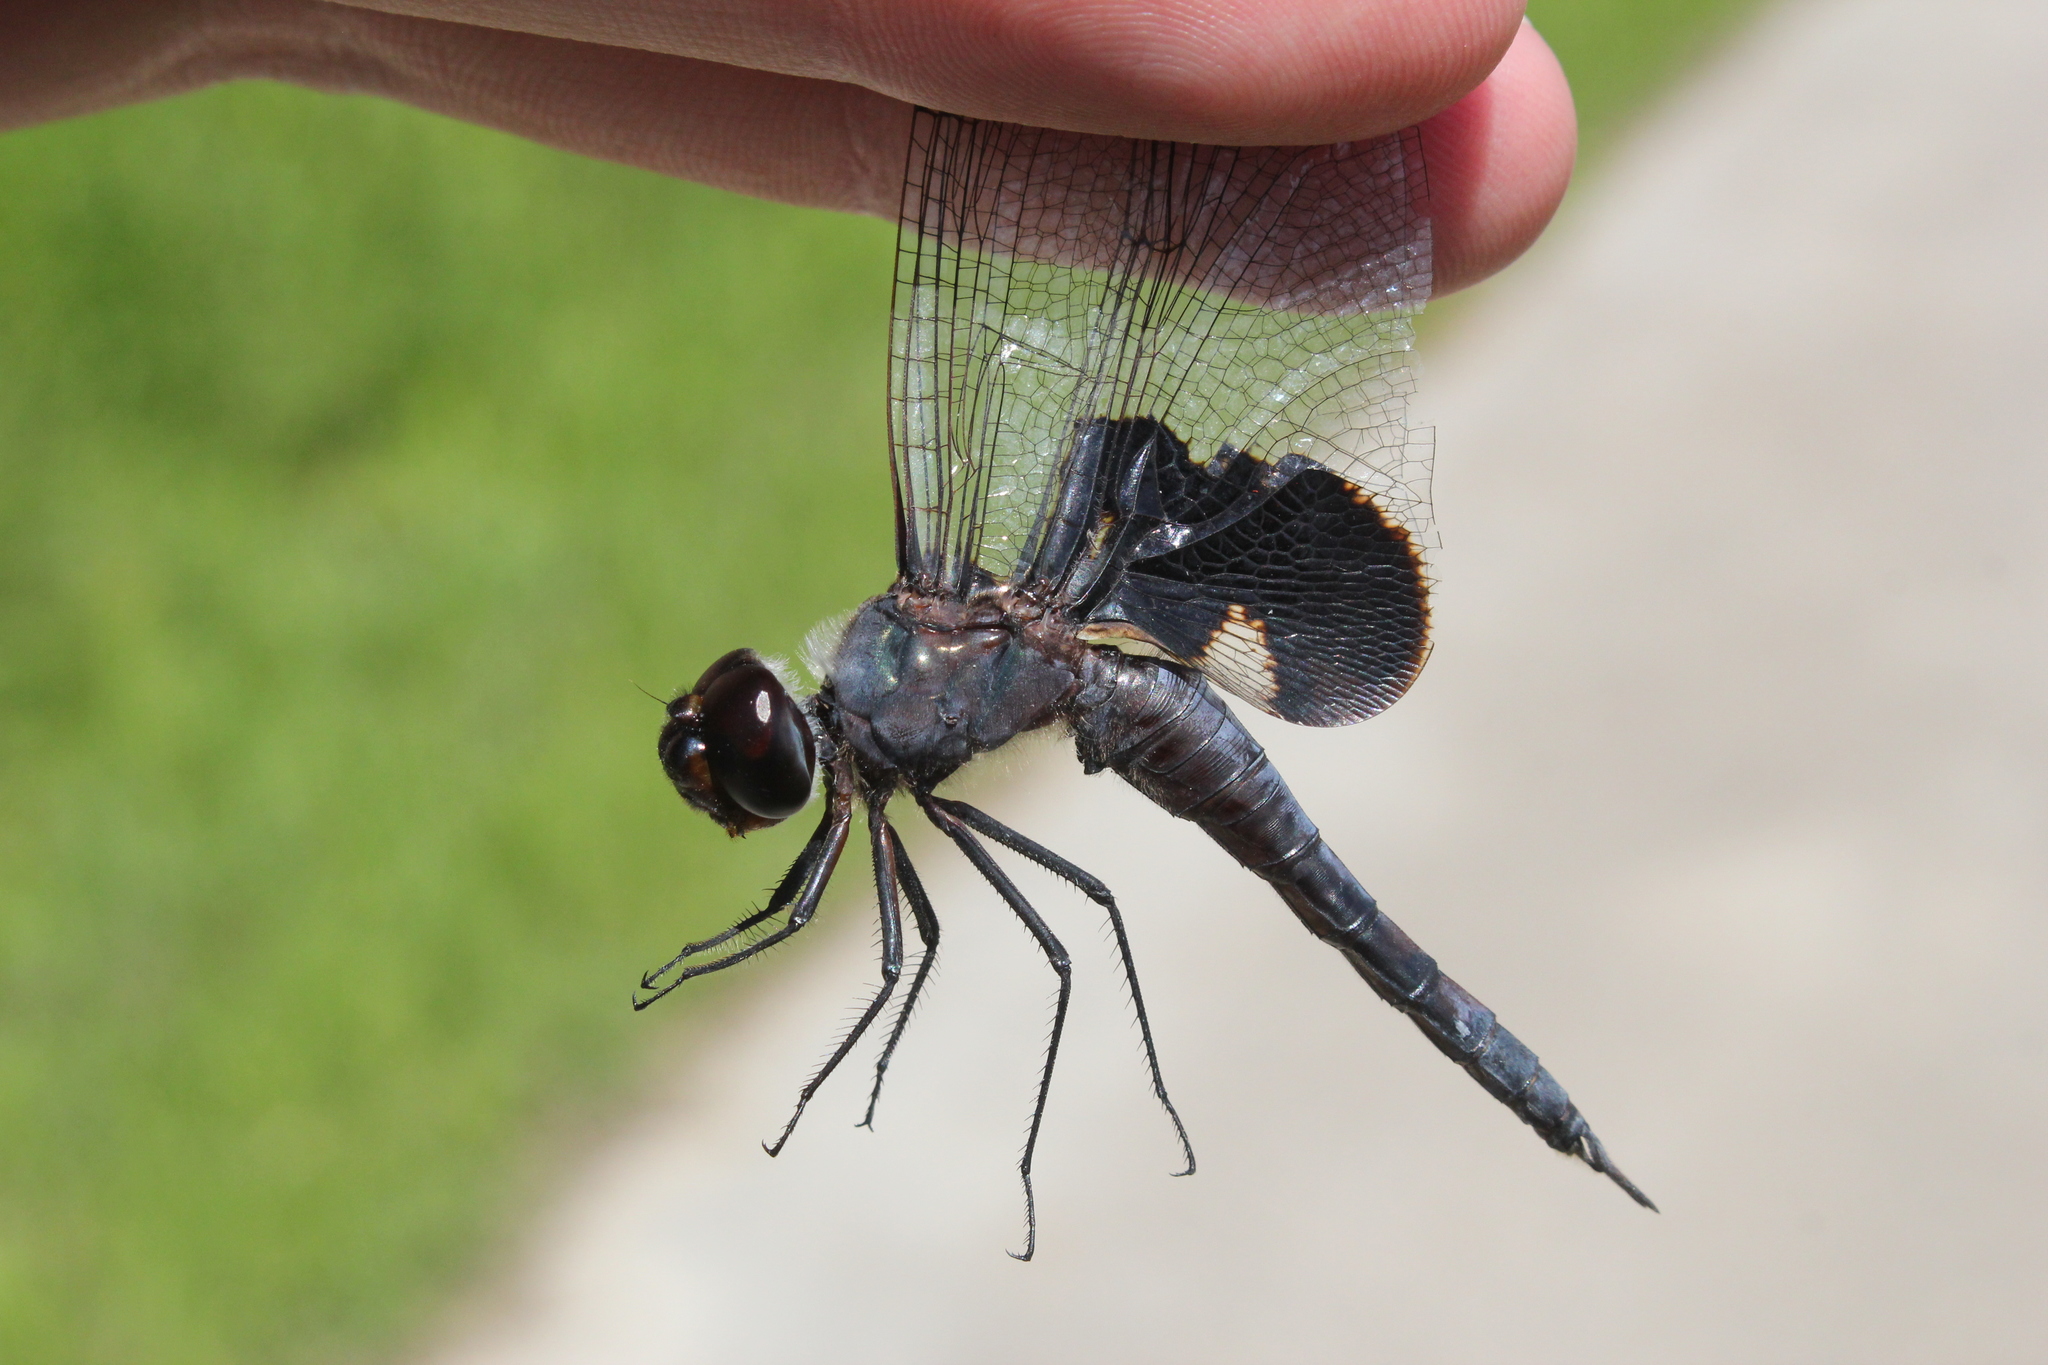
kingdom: Animalia
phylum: Arthropoda
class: Insecta
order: Odonata
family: Libellulidae
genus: Tramea
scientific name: Tramea lacerata
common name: Black saddlebags
